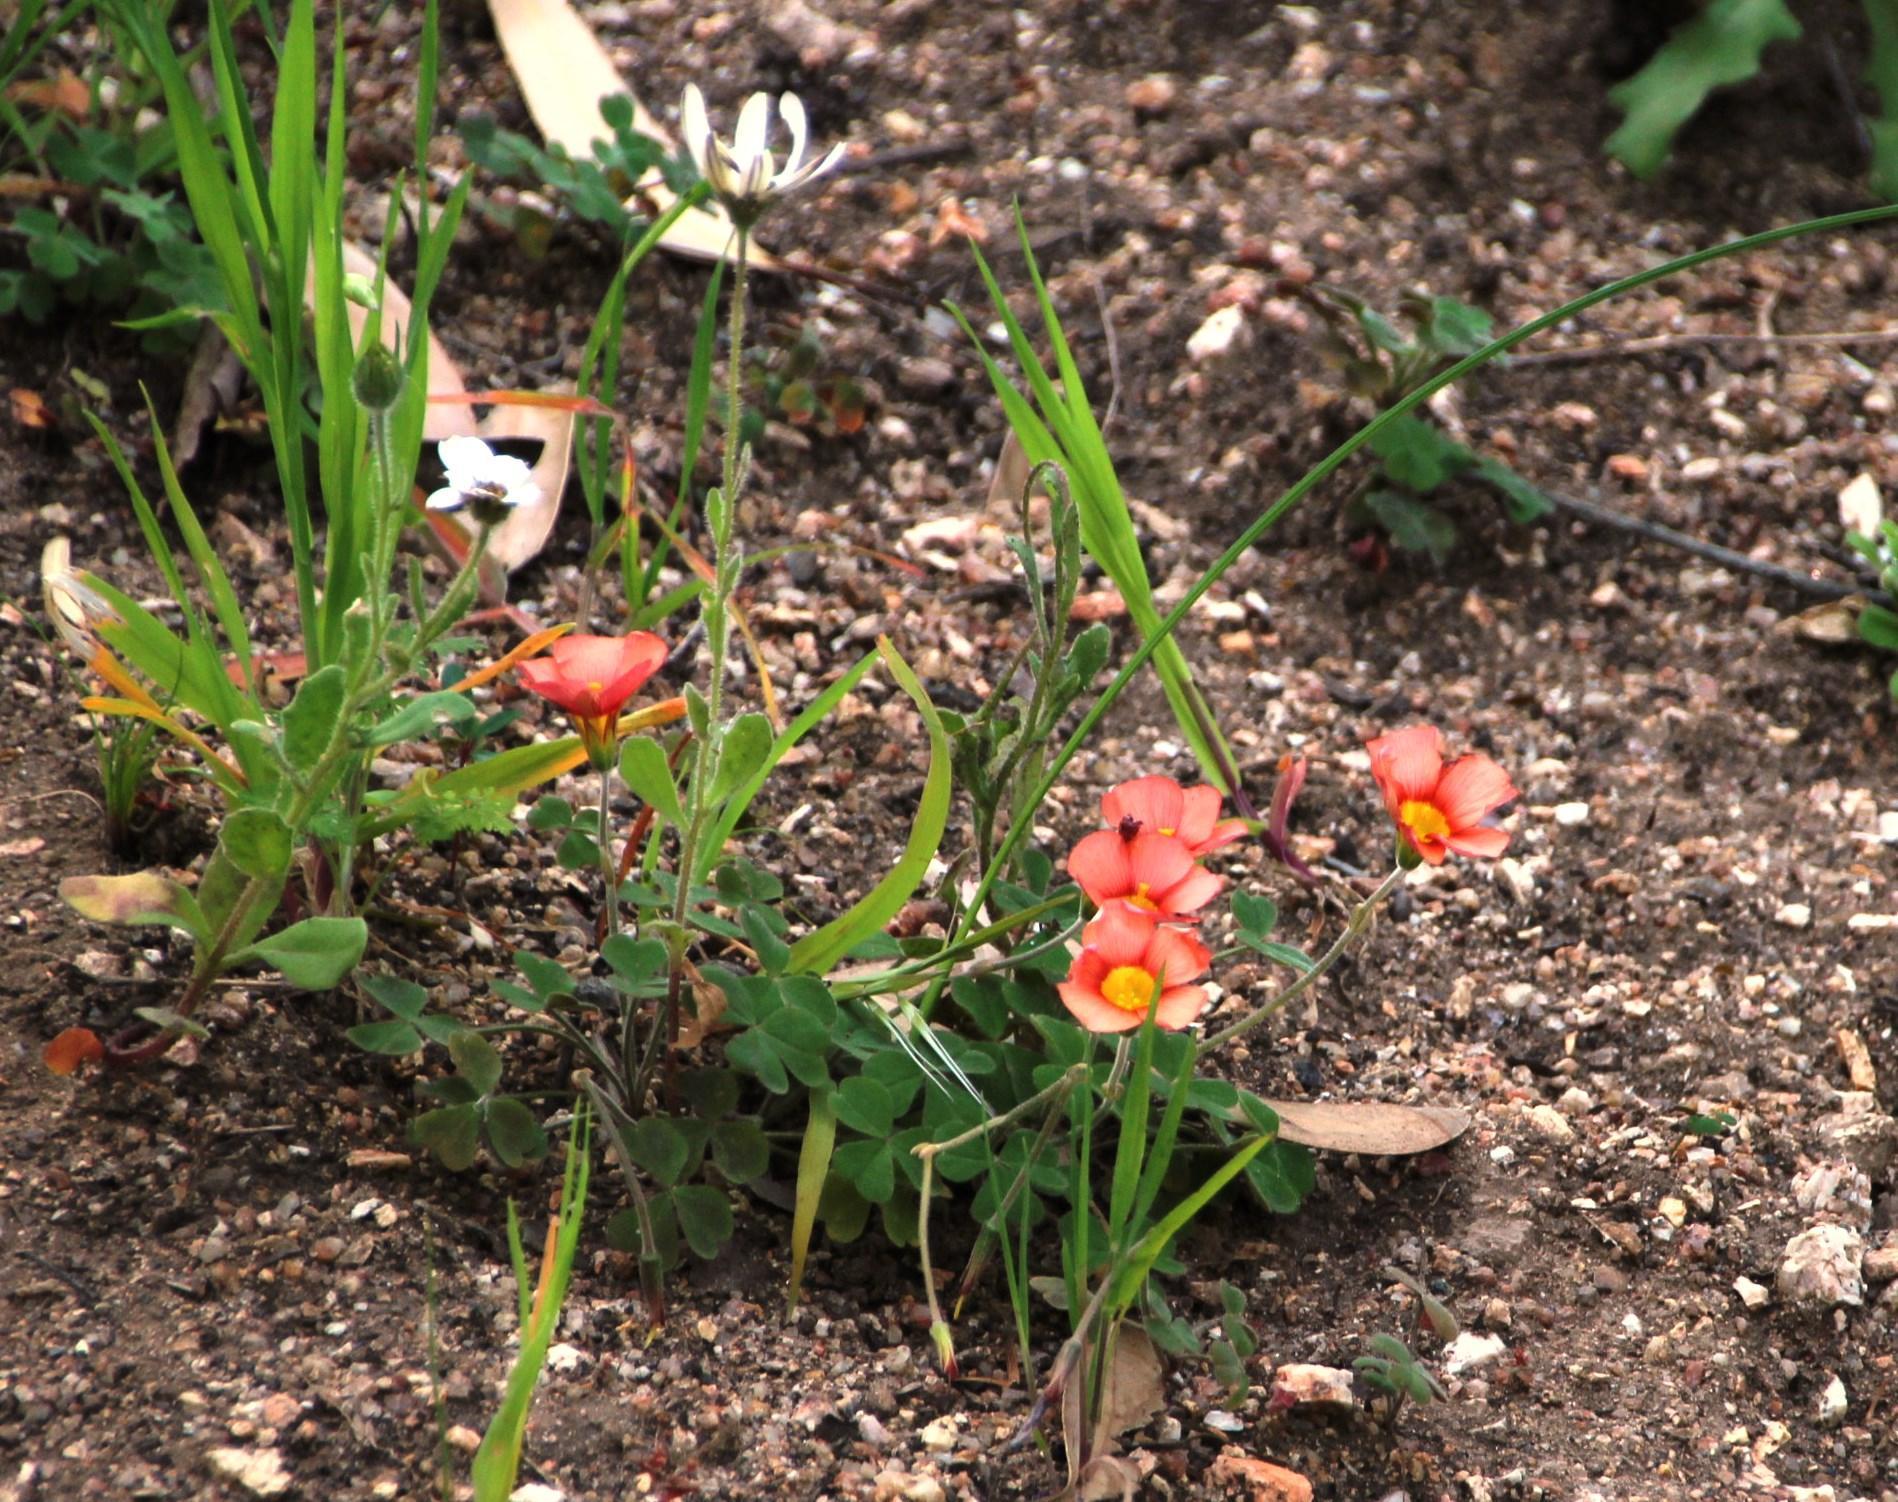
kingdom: Plantae
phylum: Tracheophyta
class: Magnoliopsida
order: Oxalidales
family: Oxalidaceae
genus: Oxalis
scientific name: Oxalis obtusa
